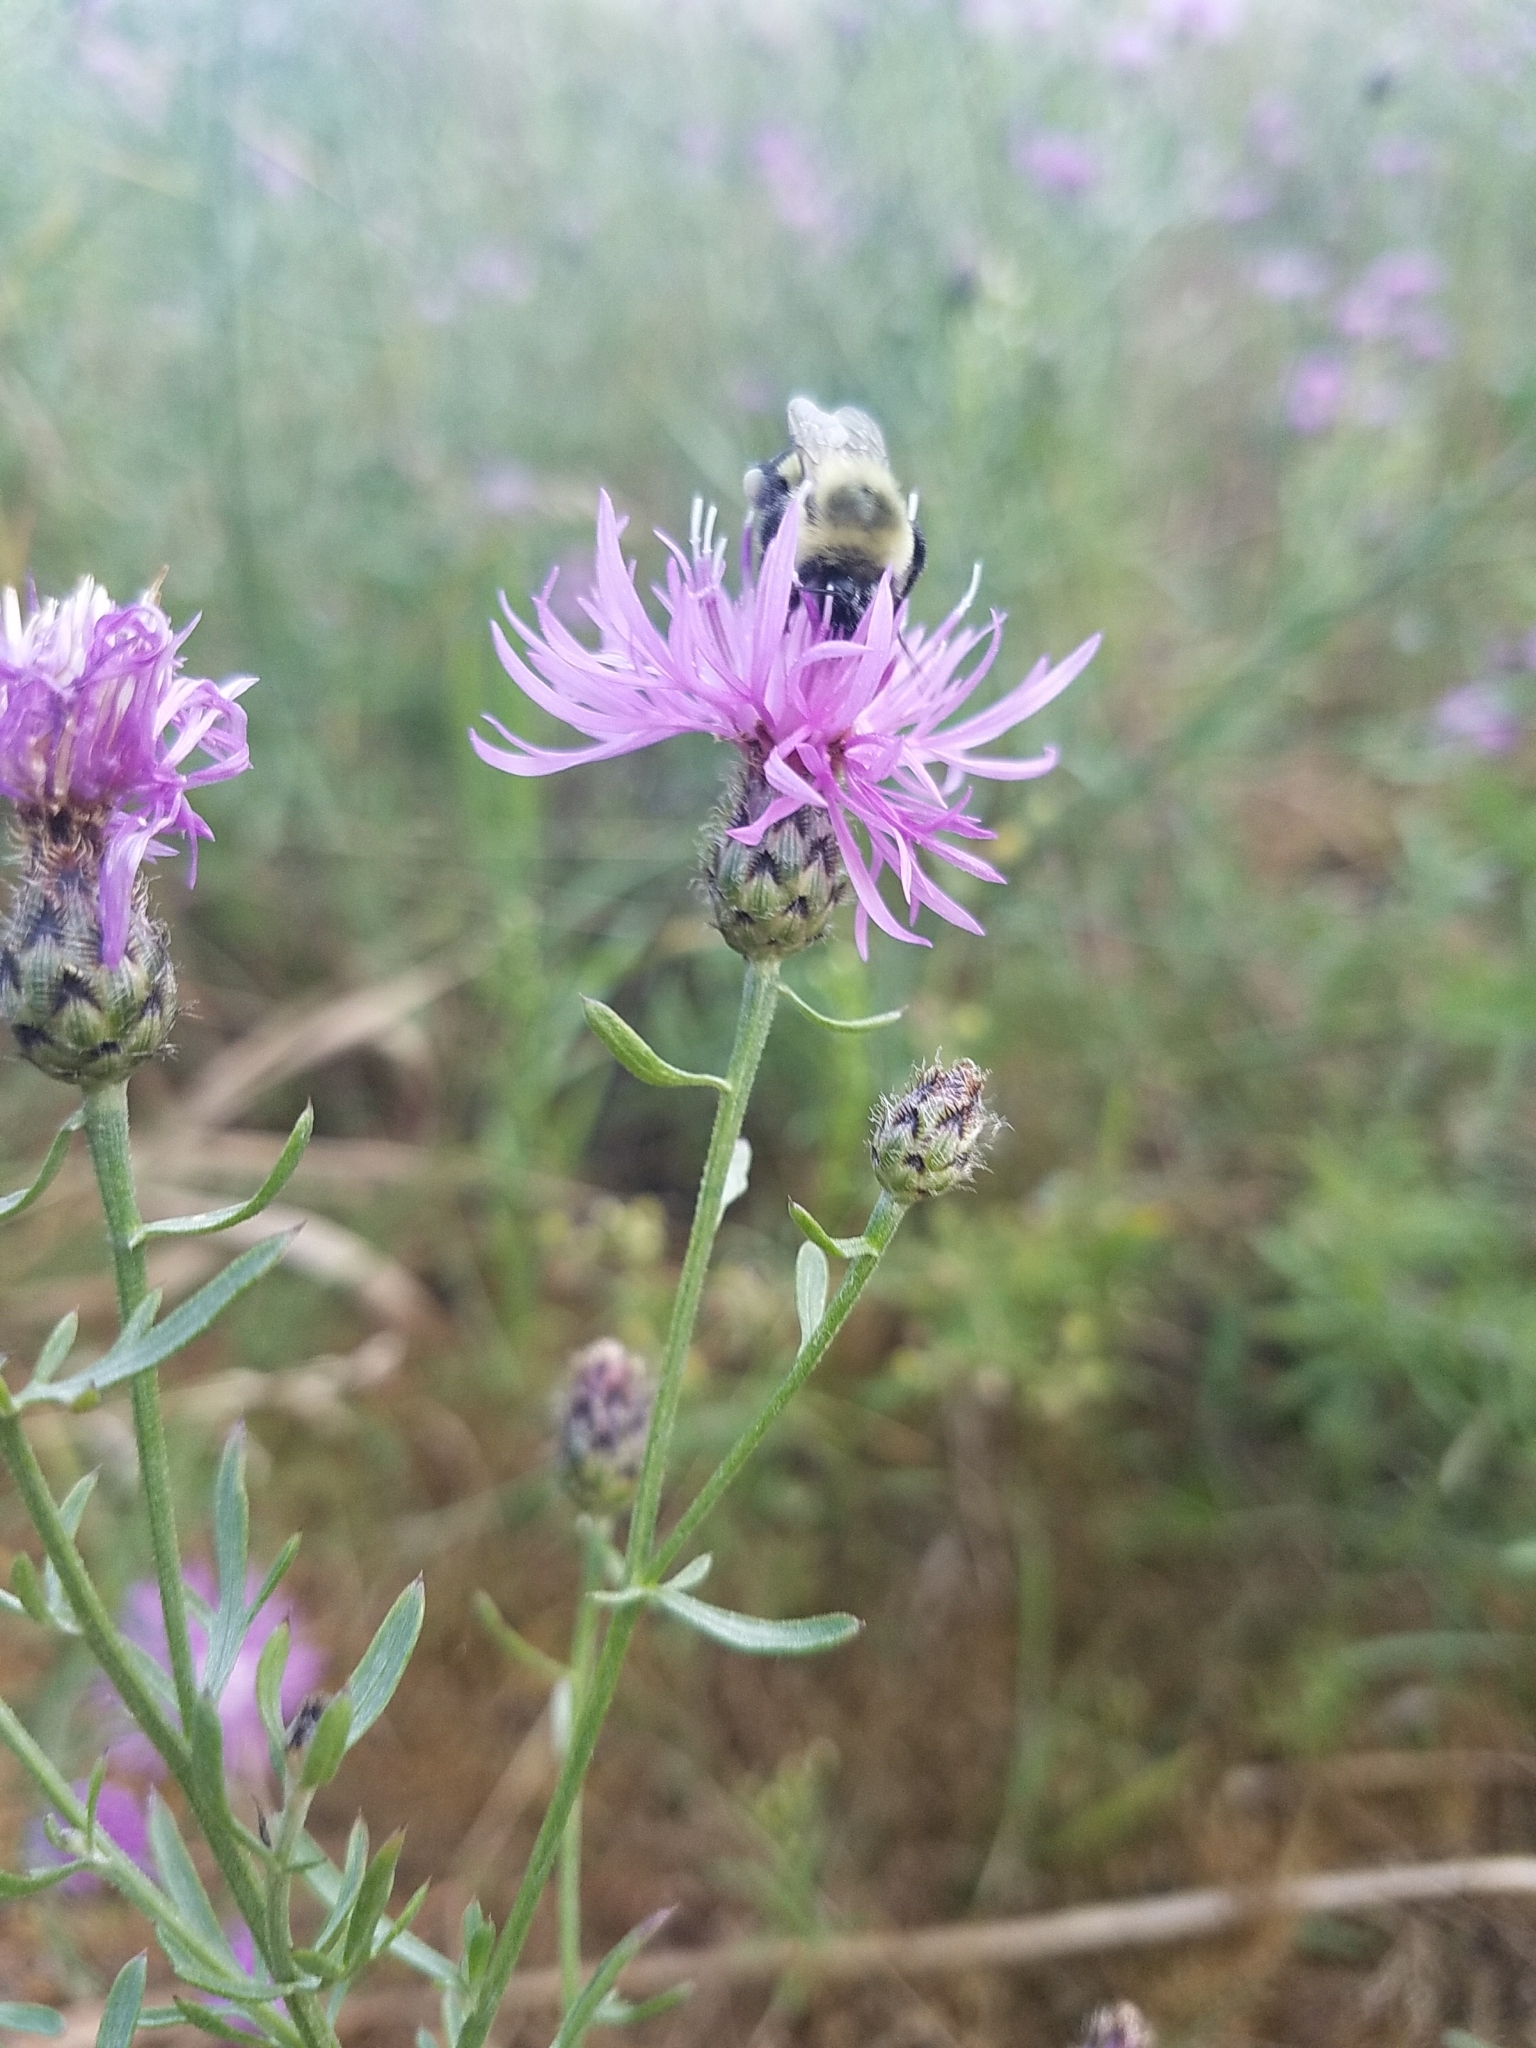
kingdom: Plantae
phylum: Tracheophyta
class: Magnoliopsida
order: Asterales
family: Asteraceae
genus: Centaurea
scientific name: Centaurea australis
